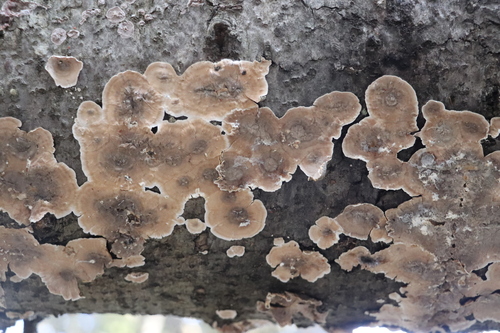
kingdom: Fungi
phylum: Basidiomycota
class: Agaricomycetes
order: Russulales
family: Stereaceae
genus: Stereum
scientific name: Stereum sanguinolentum
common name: Bleeding conifer crust
